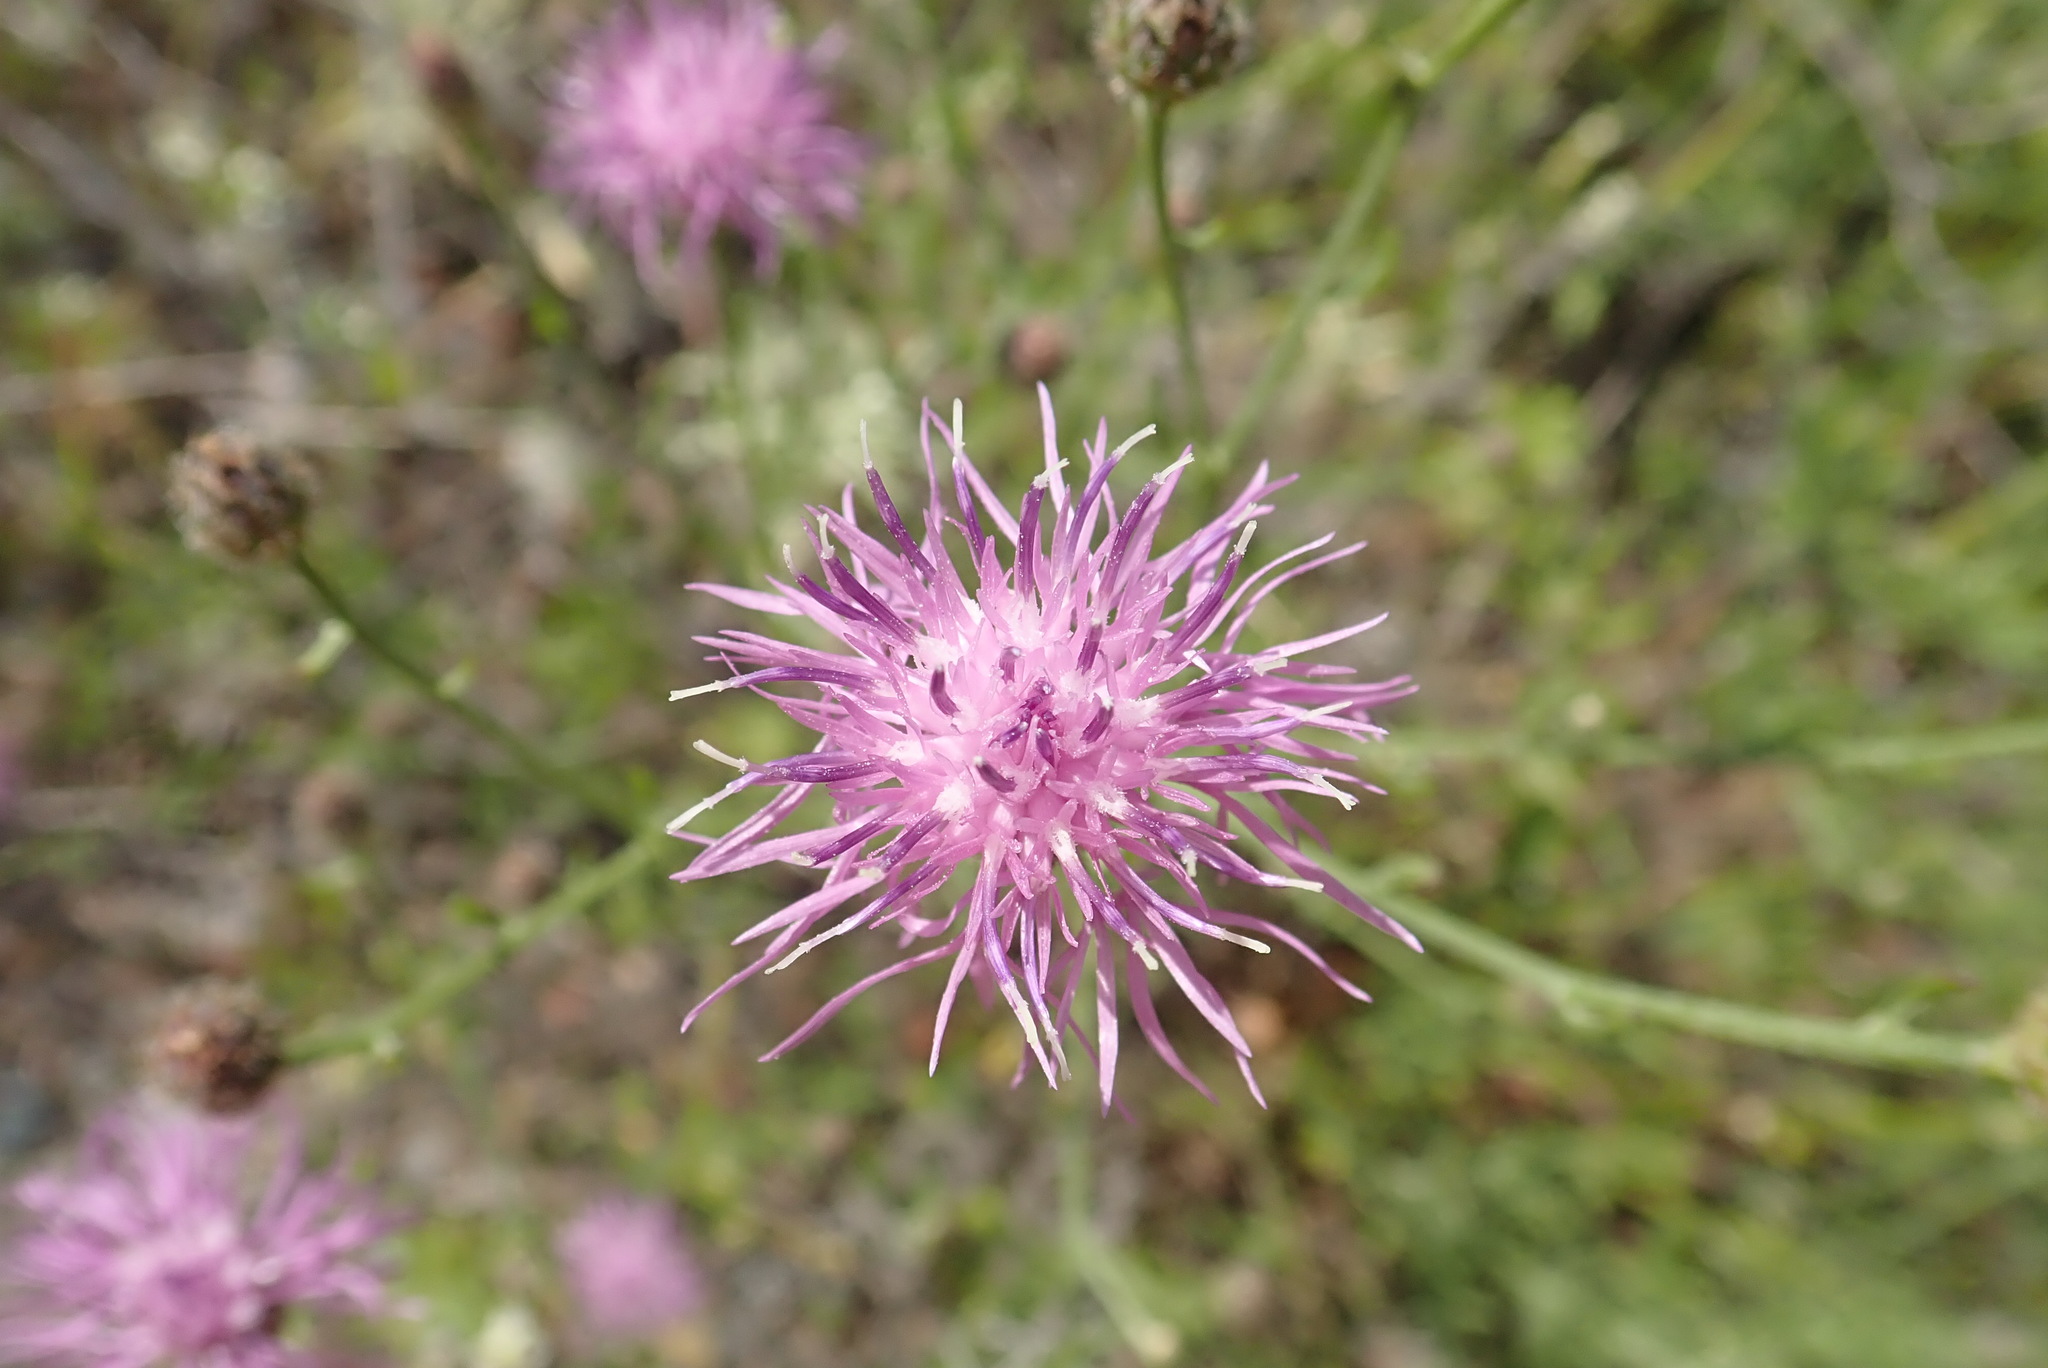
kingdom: Plantae
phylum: Tracheophyta
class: Magnoliopsida
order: Asterales
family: Asteraceae
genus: Centaurea
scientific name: Centaurea stoebe
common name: Spotted knapweed
